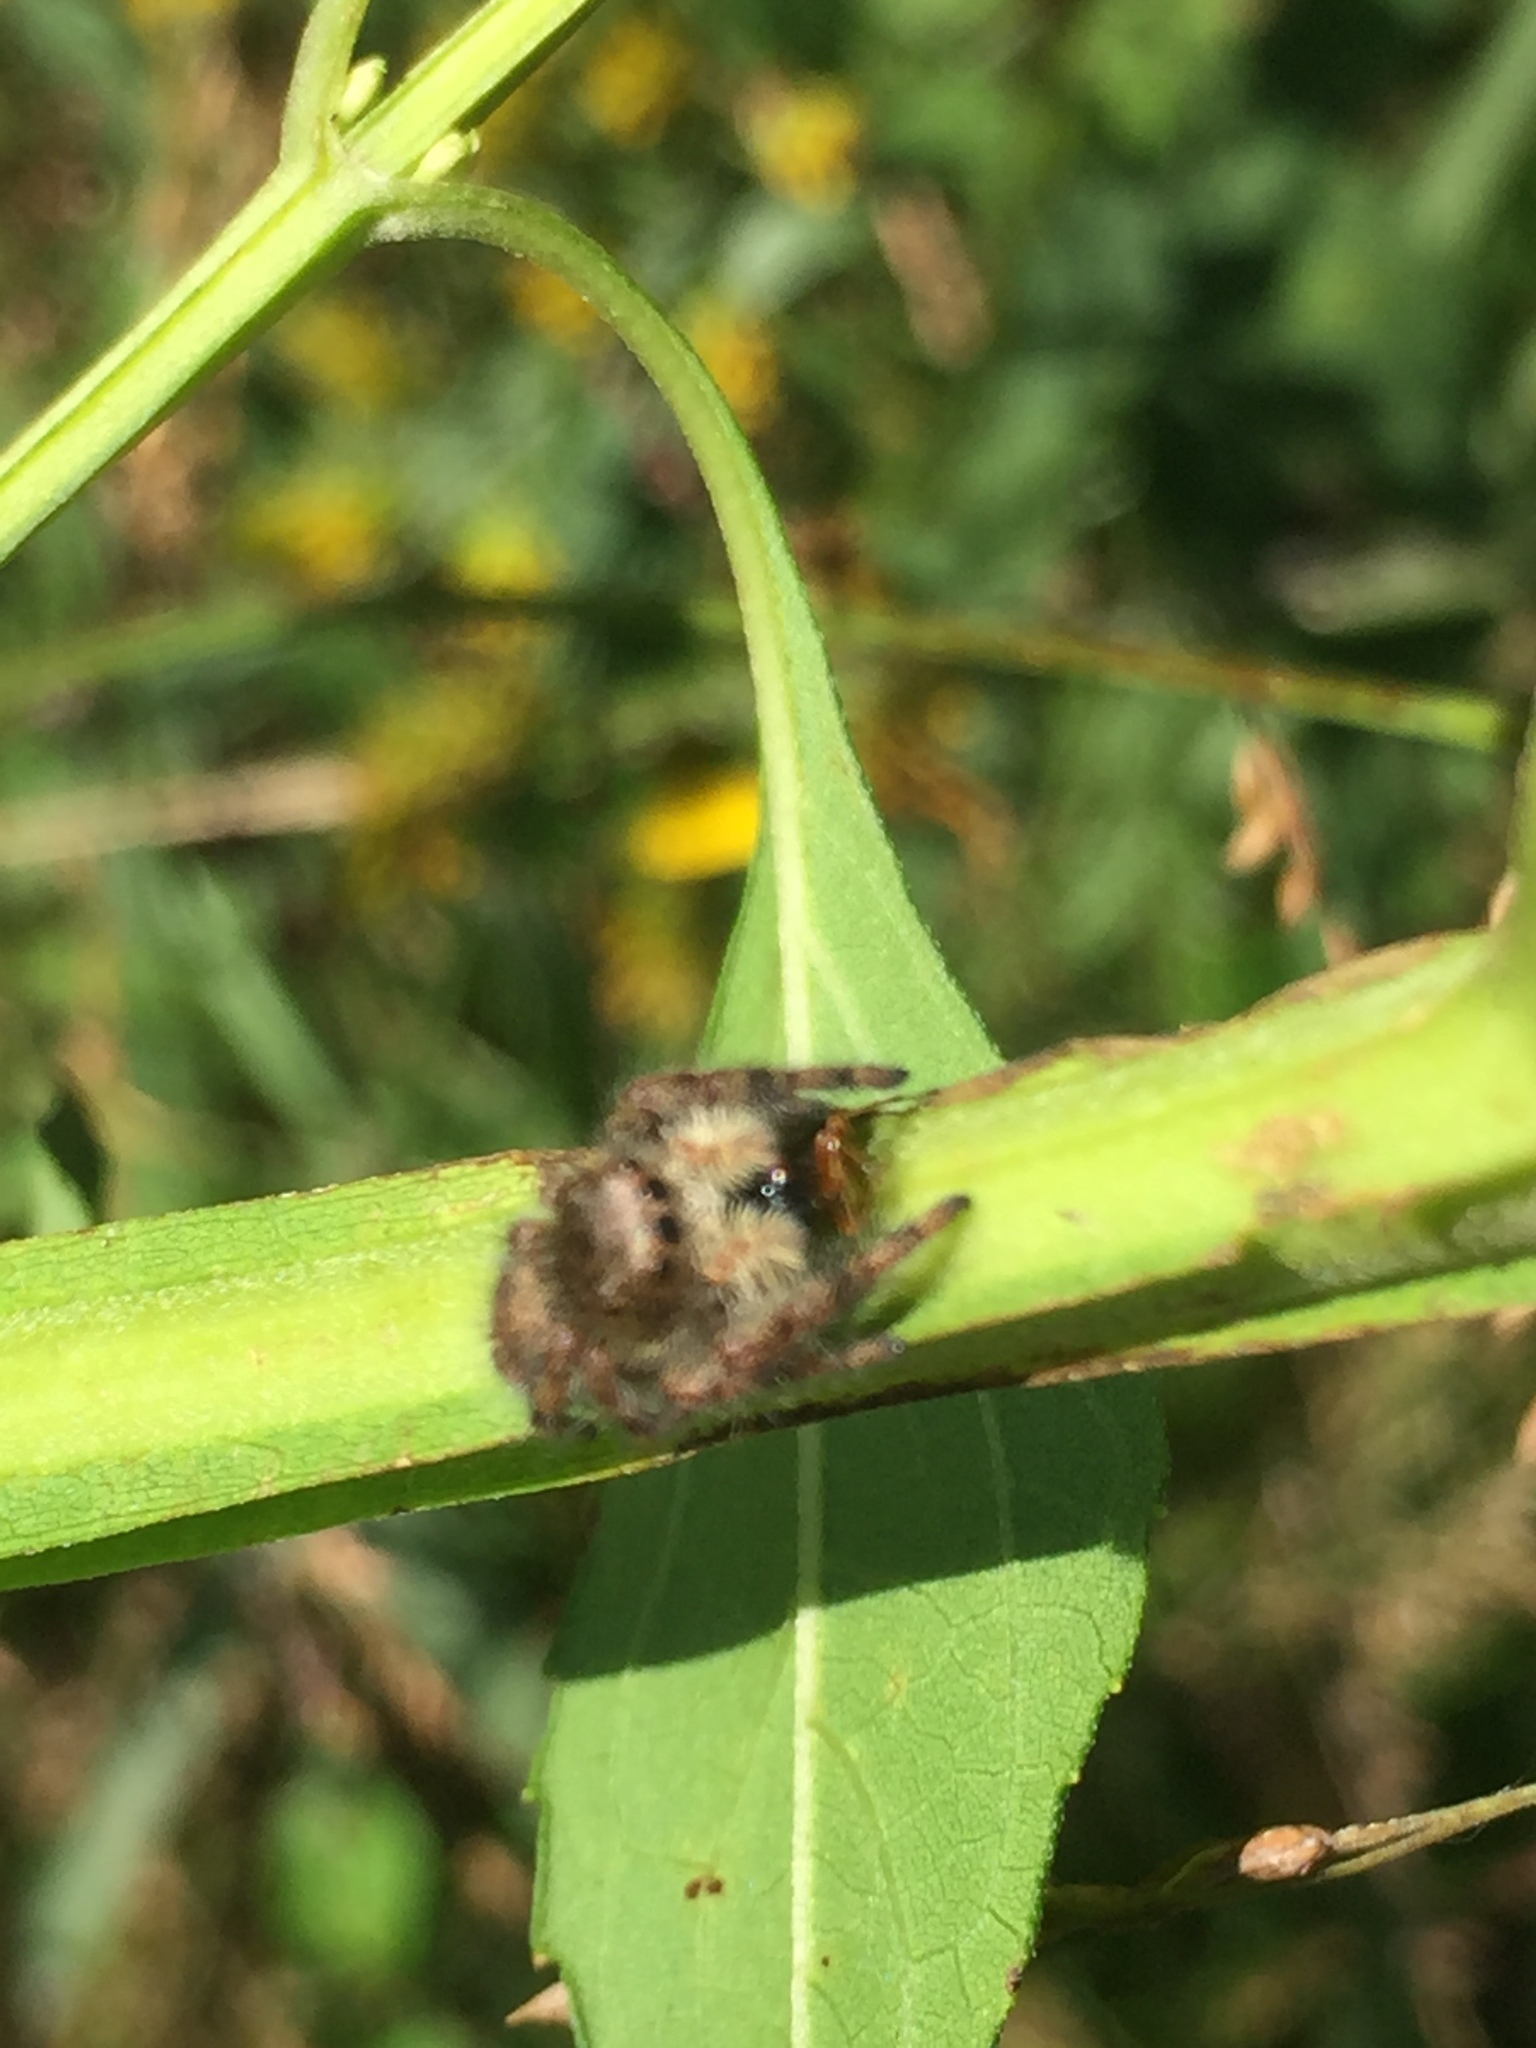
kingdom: Animalia
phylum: Arthropoda
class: Arachnida
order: Araneae
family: Salticidae
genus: Phidippus
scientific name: Phidippus princeps
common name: Grayish jumping spider
